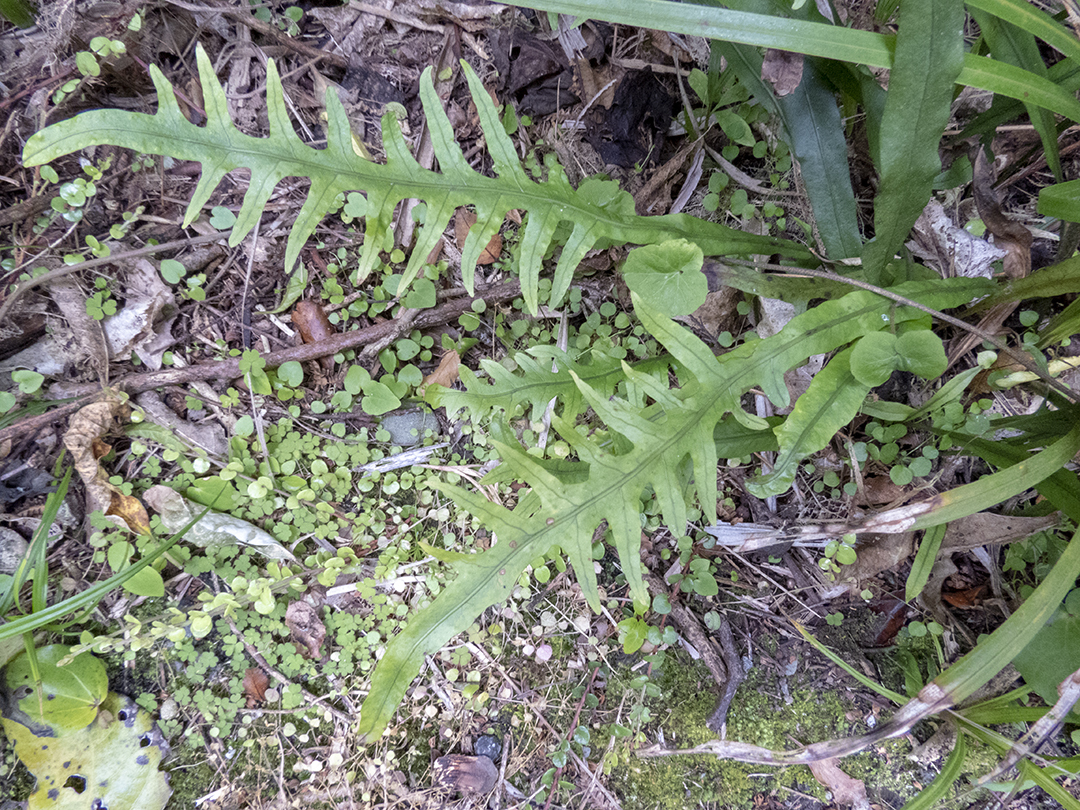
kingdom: Plantae
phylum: Tracheophyta
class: Polypodiopsida
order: Polypodiales
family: Polypodiaceae
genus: Lecanopteris
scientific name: Lecanopteris scandens
